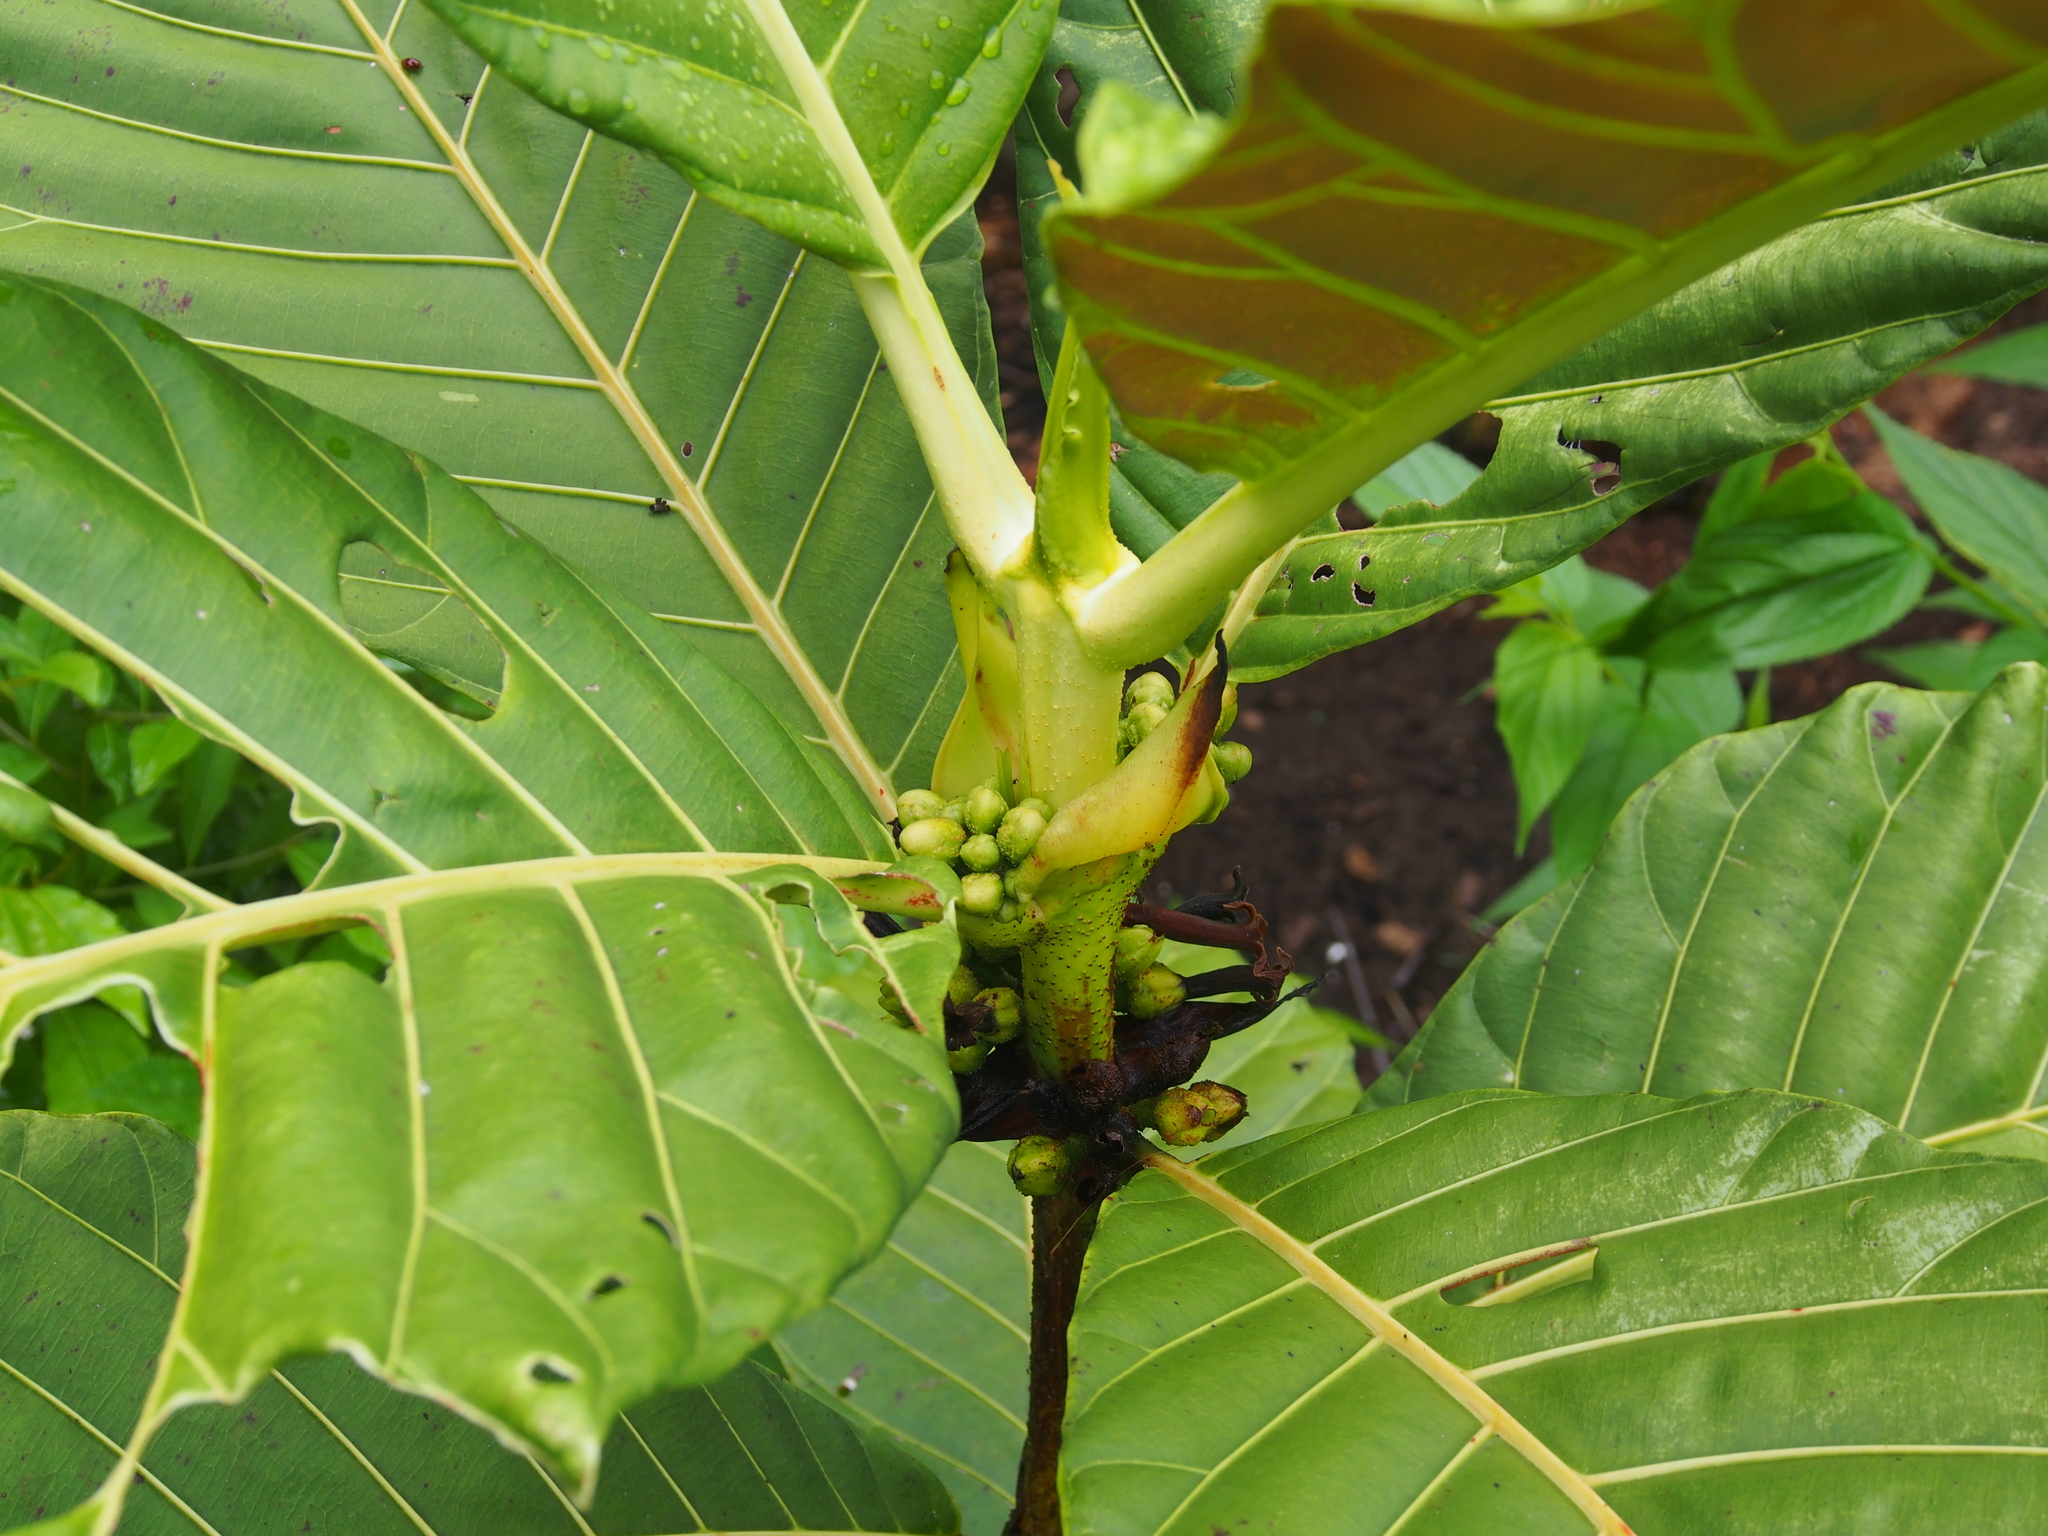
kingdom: Plantae
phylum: Tracheophyta
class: Magnoliopsida
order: Gentianales
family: Rubiaceae
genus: Pentagonia
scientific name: Pentagonia donnell-smithii
